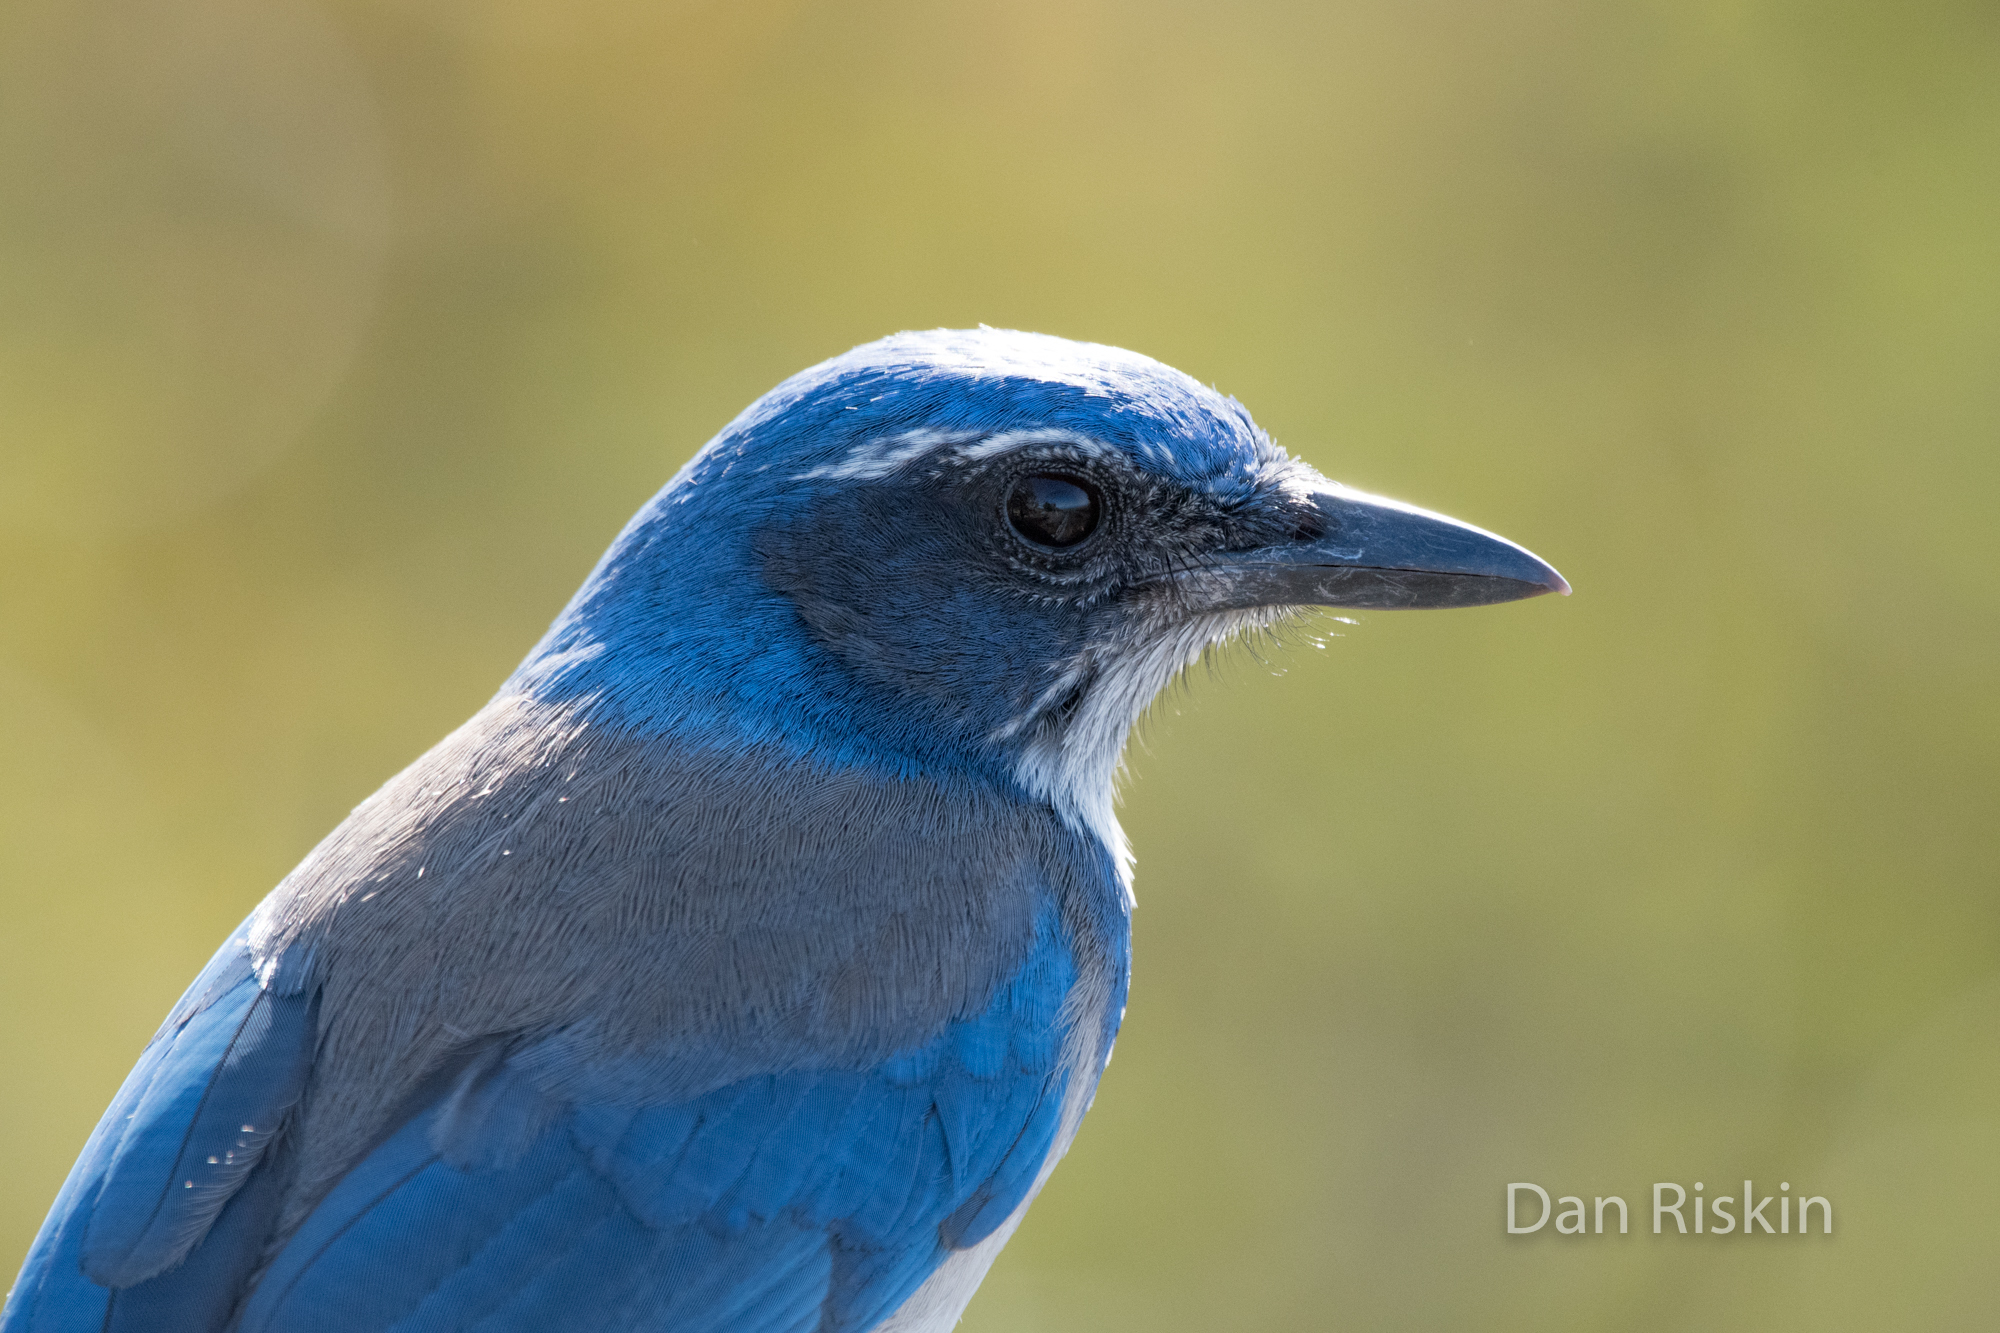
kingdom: Animalia
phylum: Chordata
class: Aves
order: Passeriformes
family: Corvidae
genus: Aphelocoma
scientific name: Aphelocoma californica
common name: California scrub-jay
